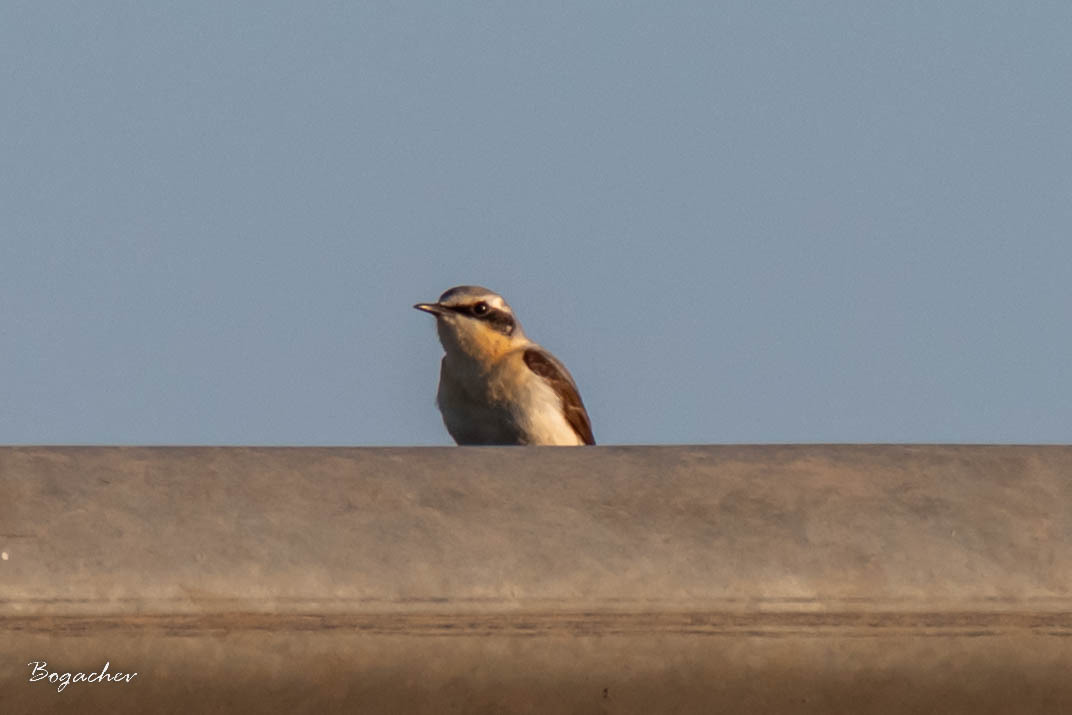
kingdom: Animalia
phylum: Chordata
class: Aves
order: Passeriformes
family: Muscicapidae
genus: Oenanthe
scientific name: Oenanthe oenanthe
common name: Northern wheatear
